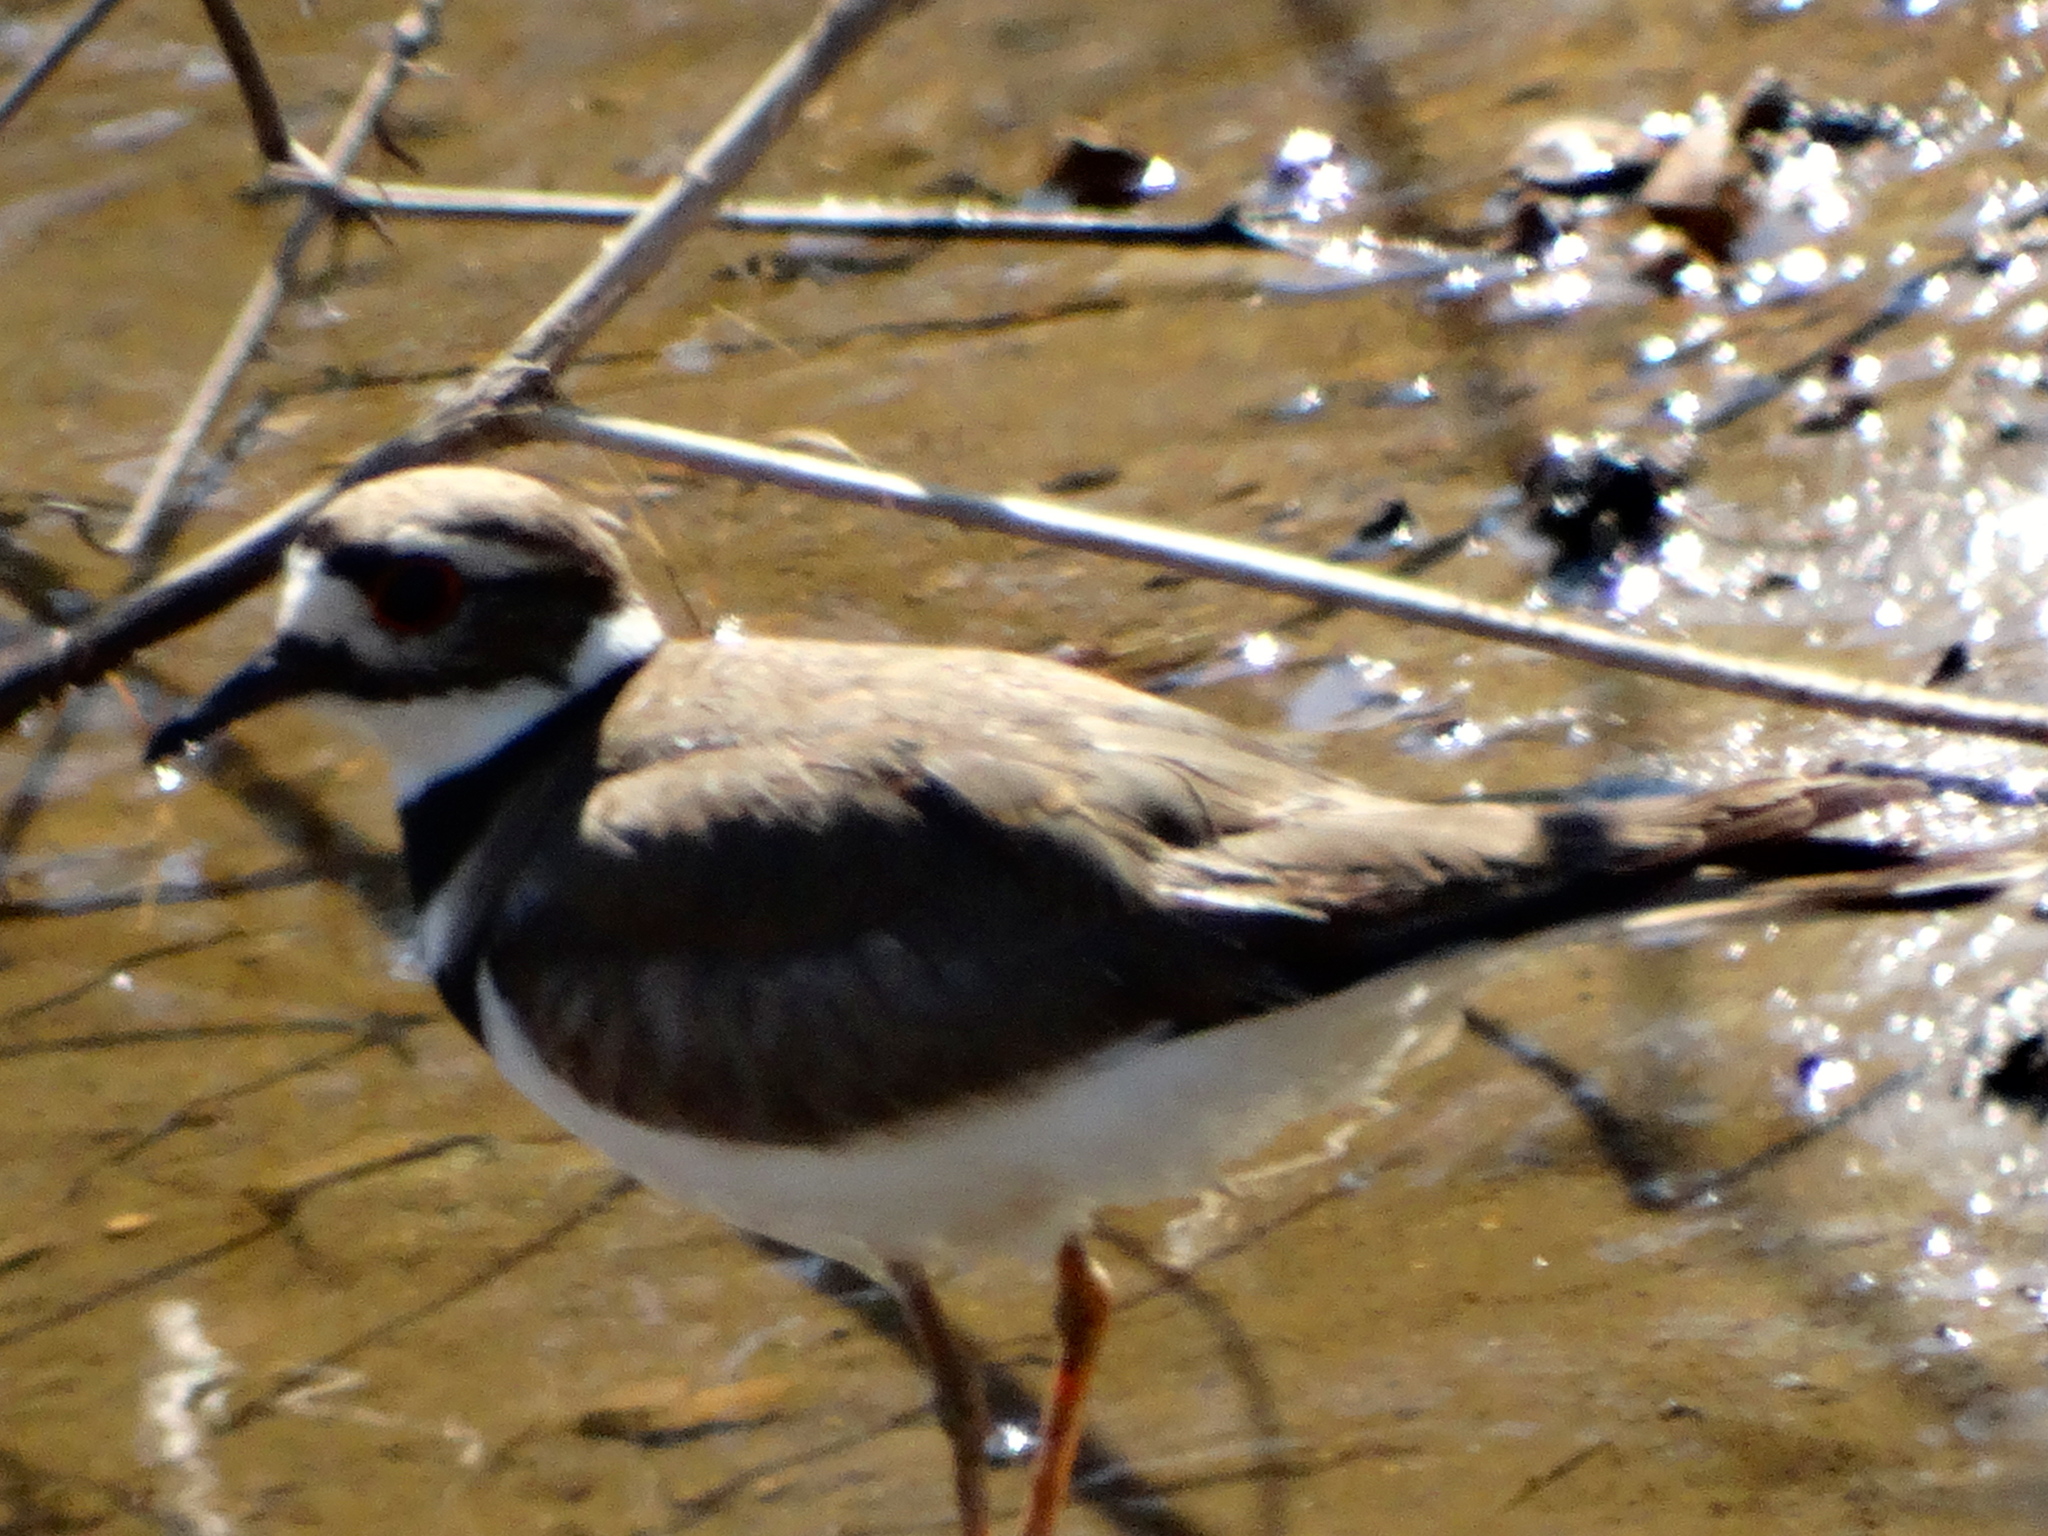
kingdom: Animalia
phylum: Chordata
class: Aves
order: Charadriiformes
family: Charadriidae
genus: Charadrius
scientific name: Charadrius vociferus
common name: Killdeer
